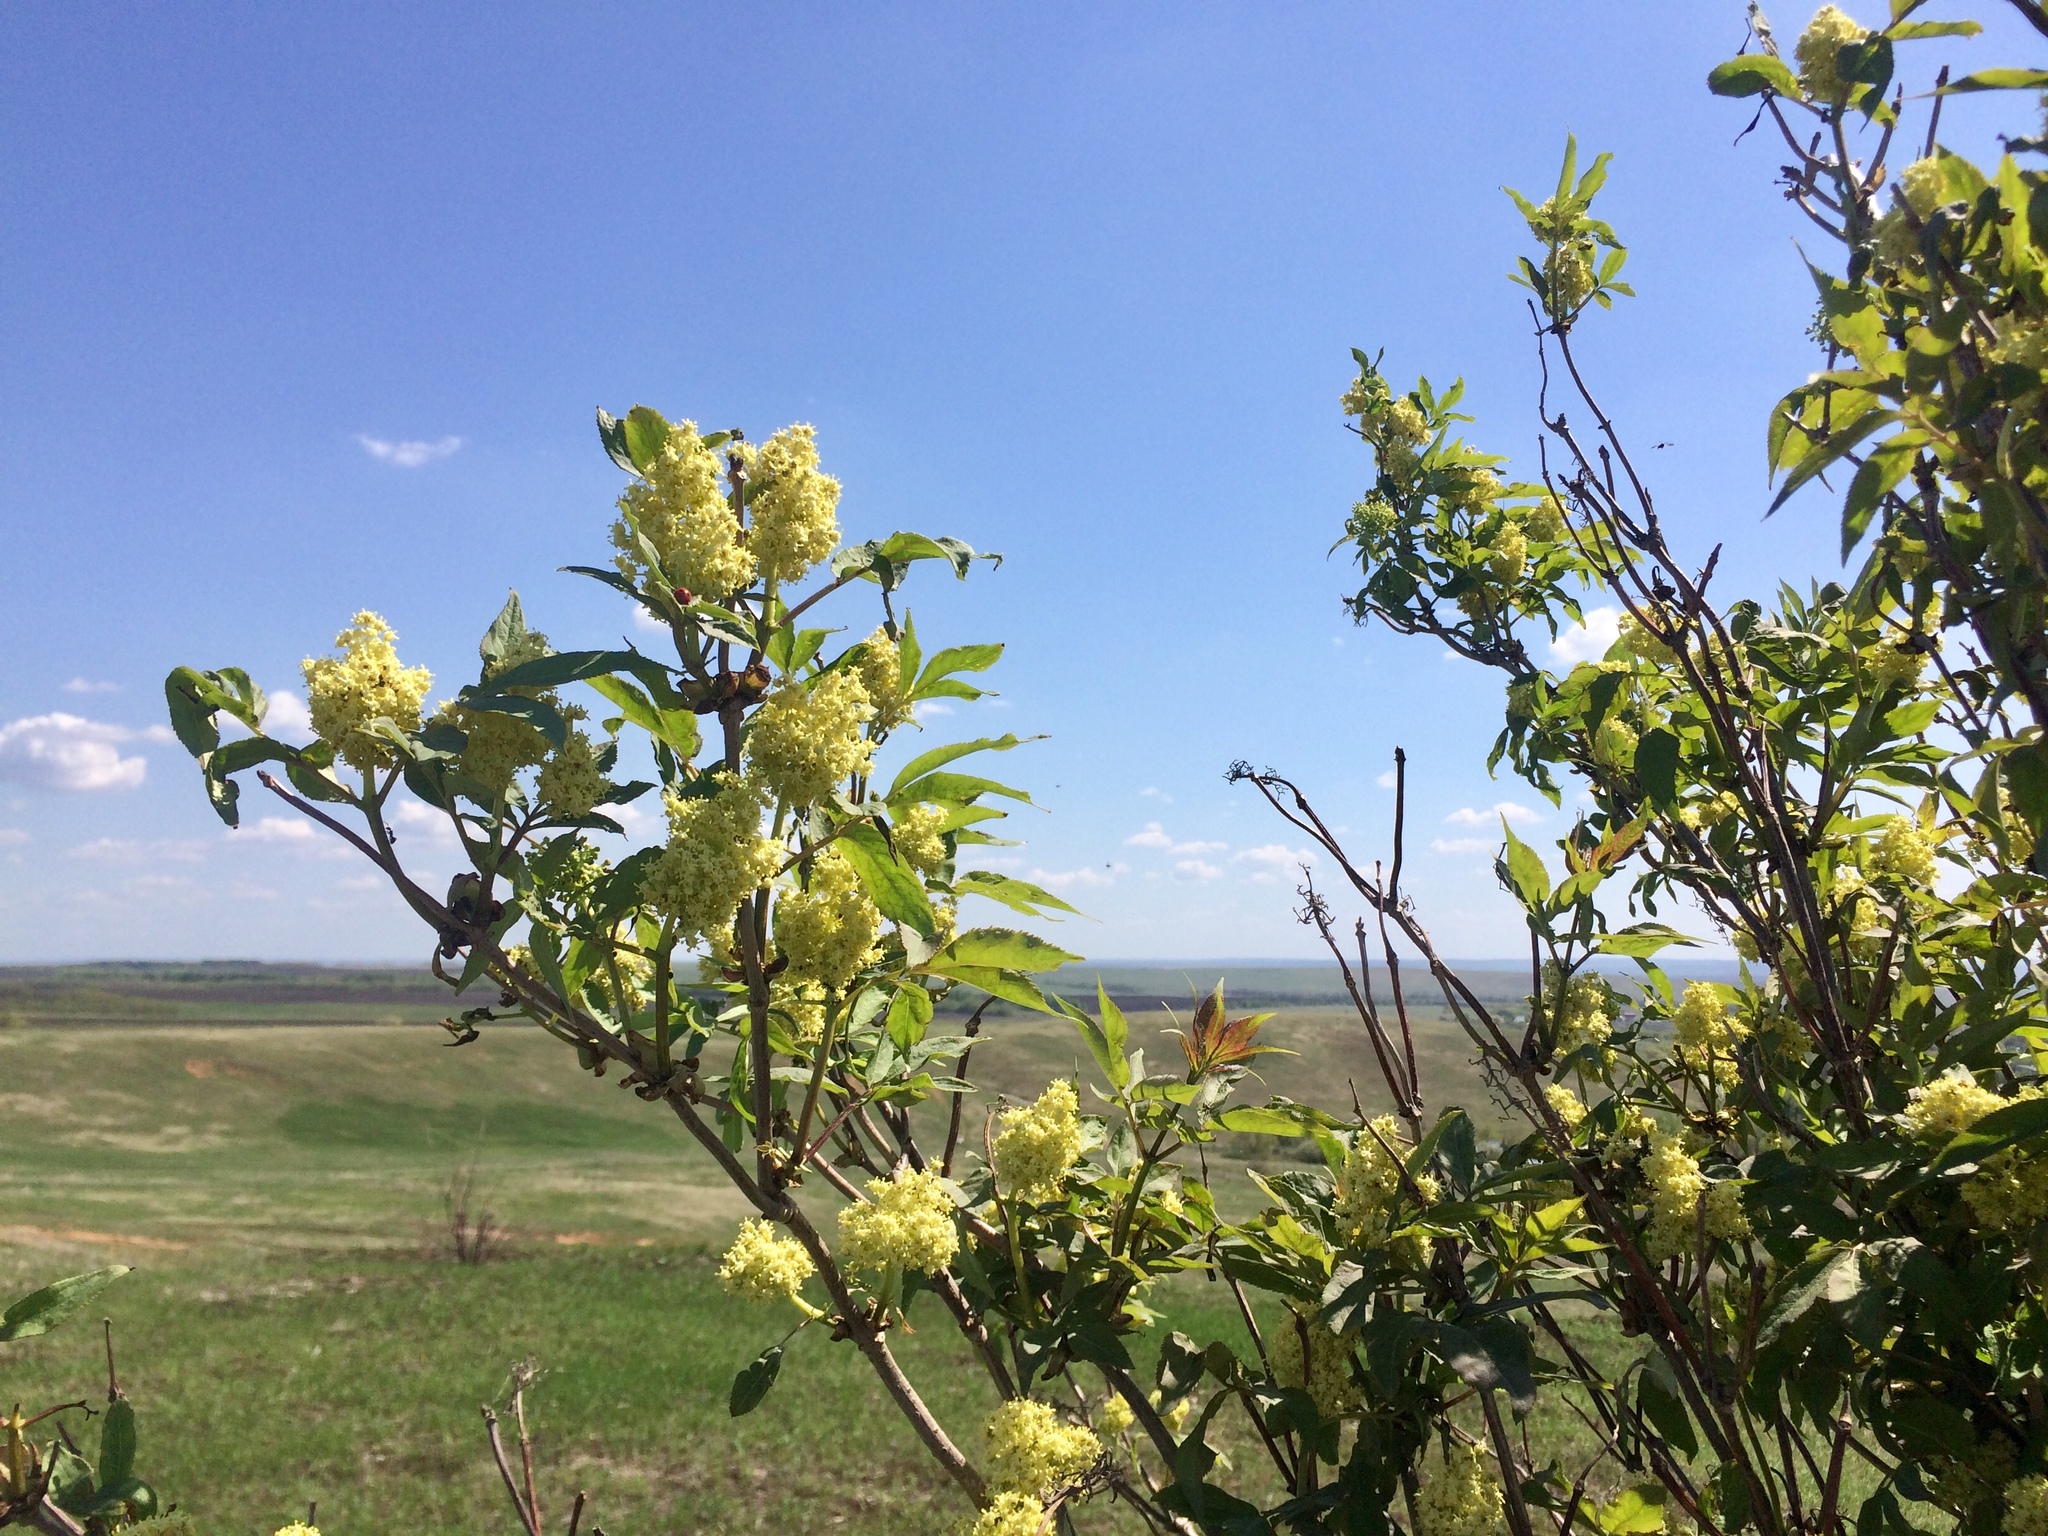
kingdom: Plantae
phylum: Tracheophyta
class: Magnoliopsida
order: Dipsacales
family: Viburnaceae
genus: Sambucus
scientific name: Sambucus racemosa
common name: Red-berried elder
